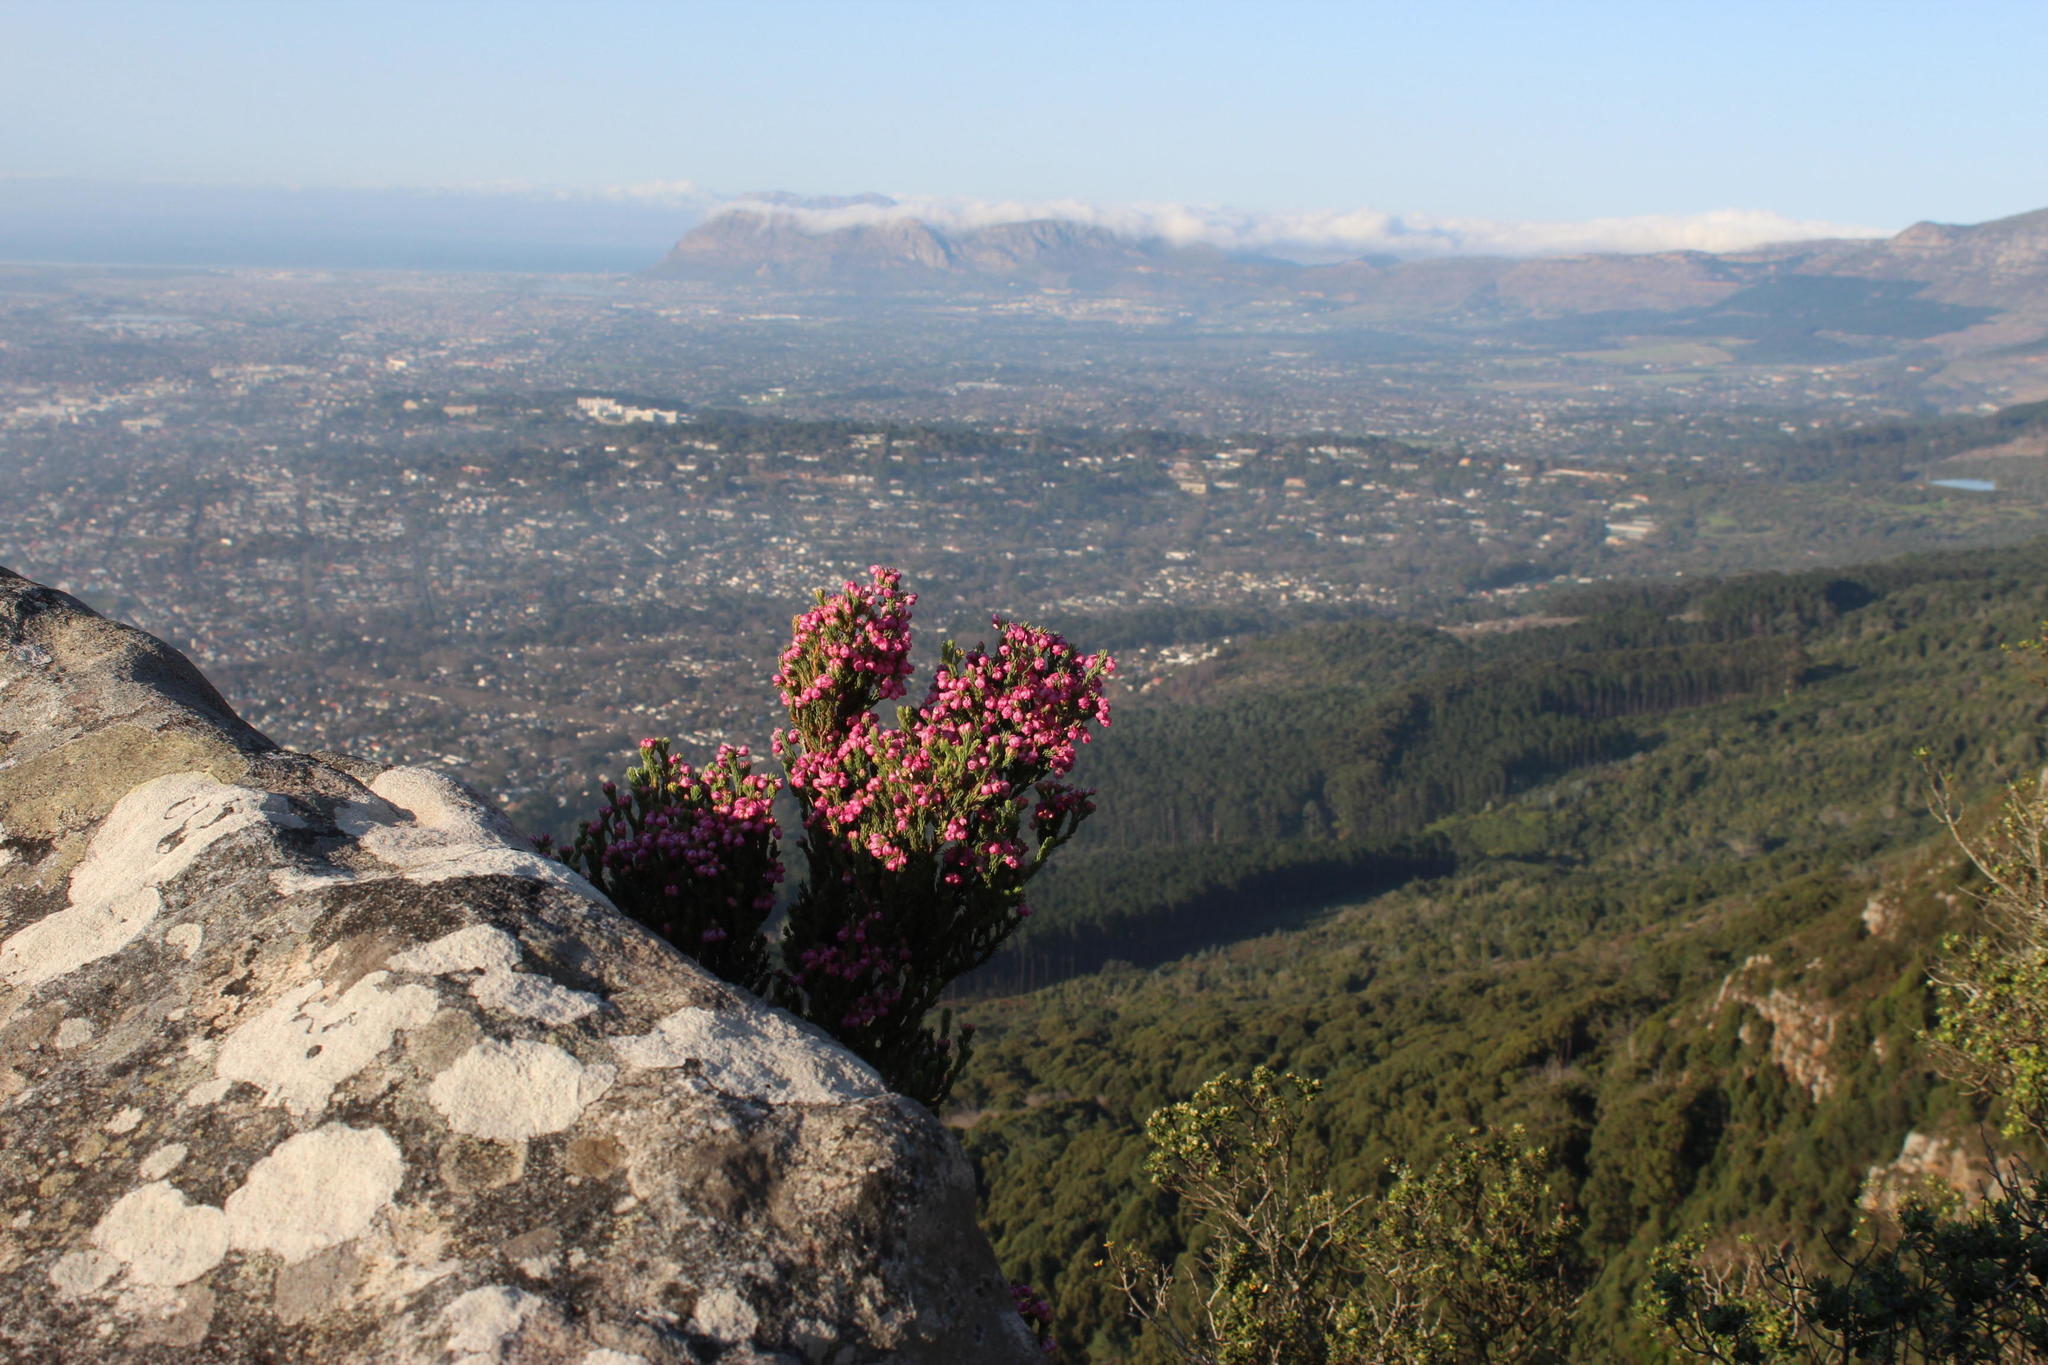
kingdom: Plantae
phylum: Tracheophyta
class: Magnoliopsida
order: Ericales
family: Ericaceae
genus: Erica
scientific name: Erica baccans
